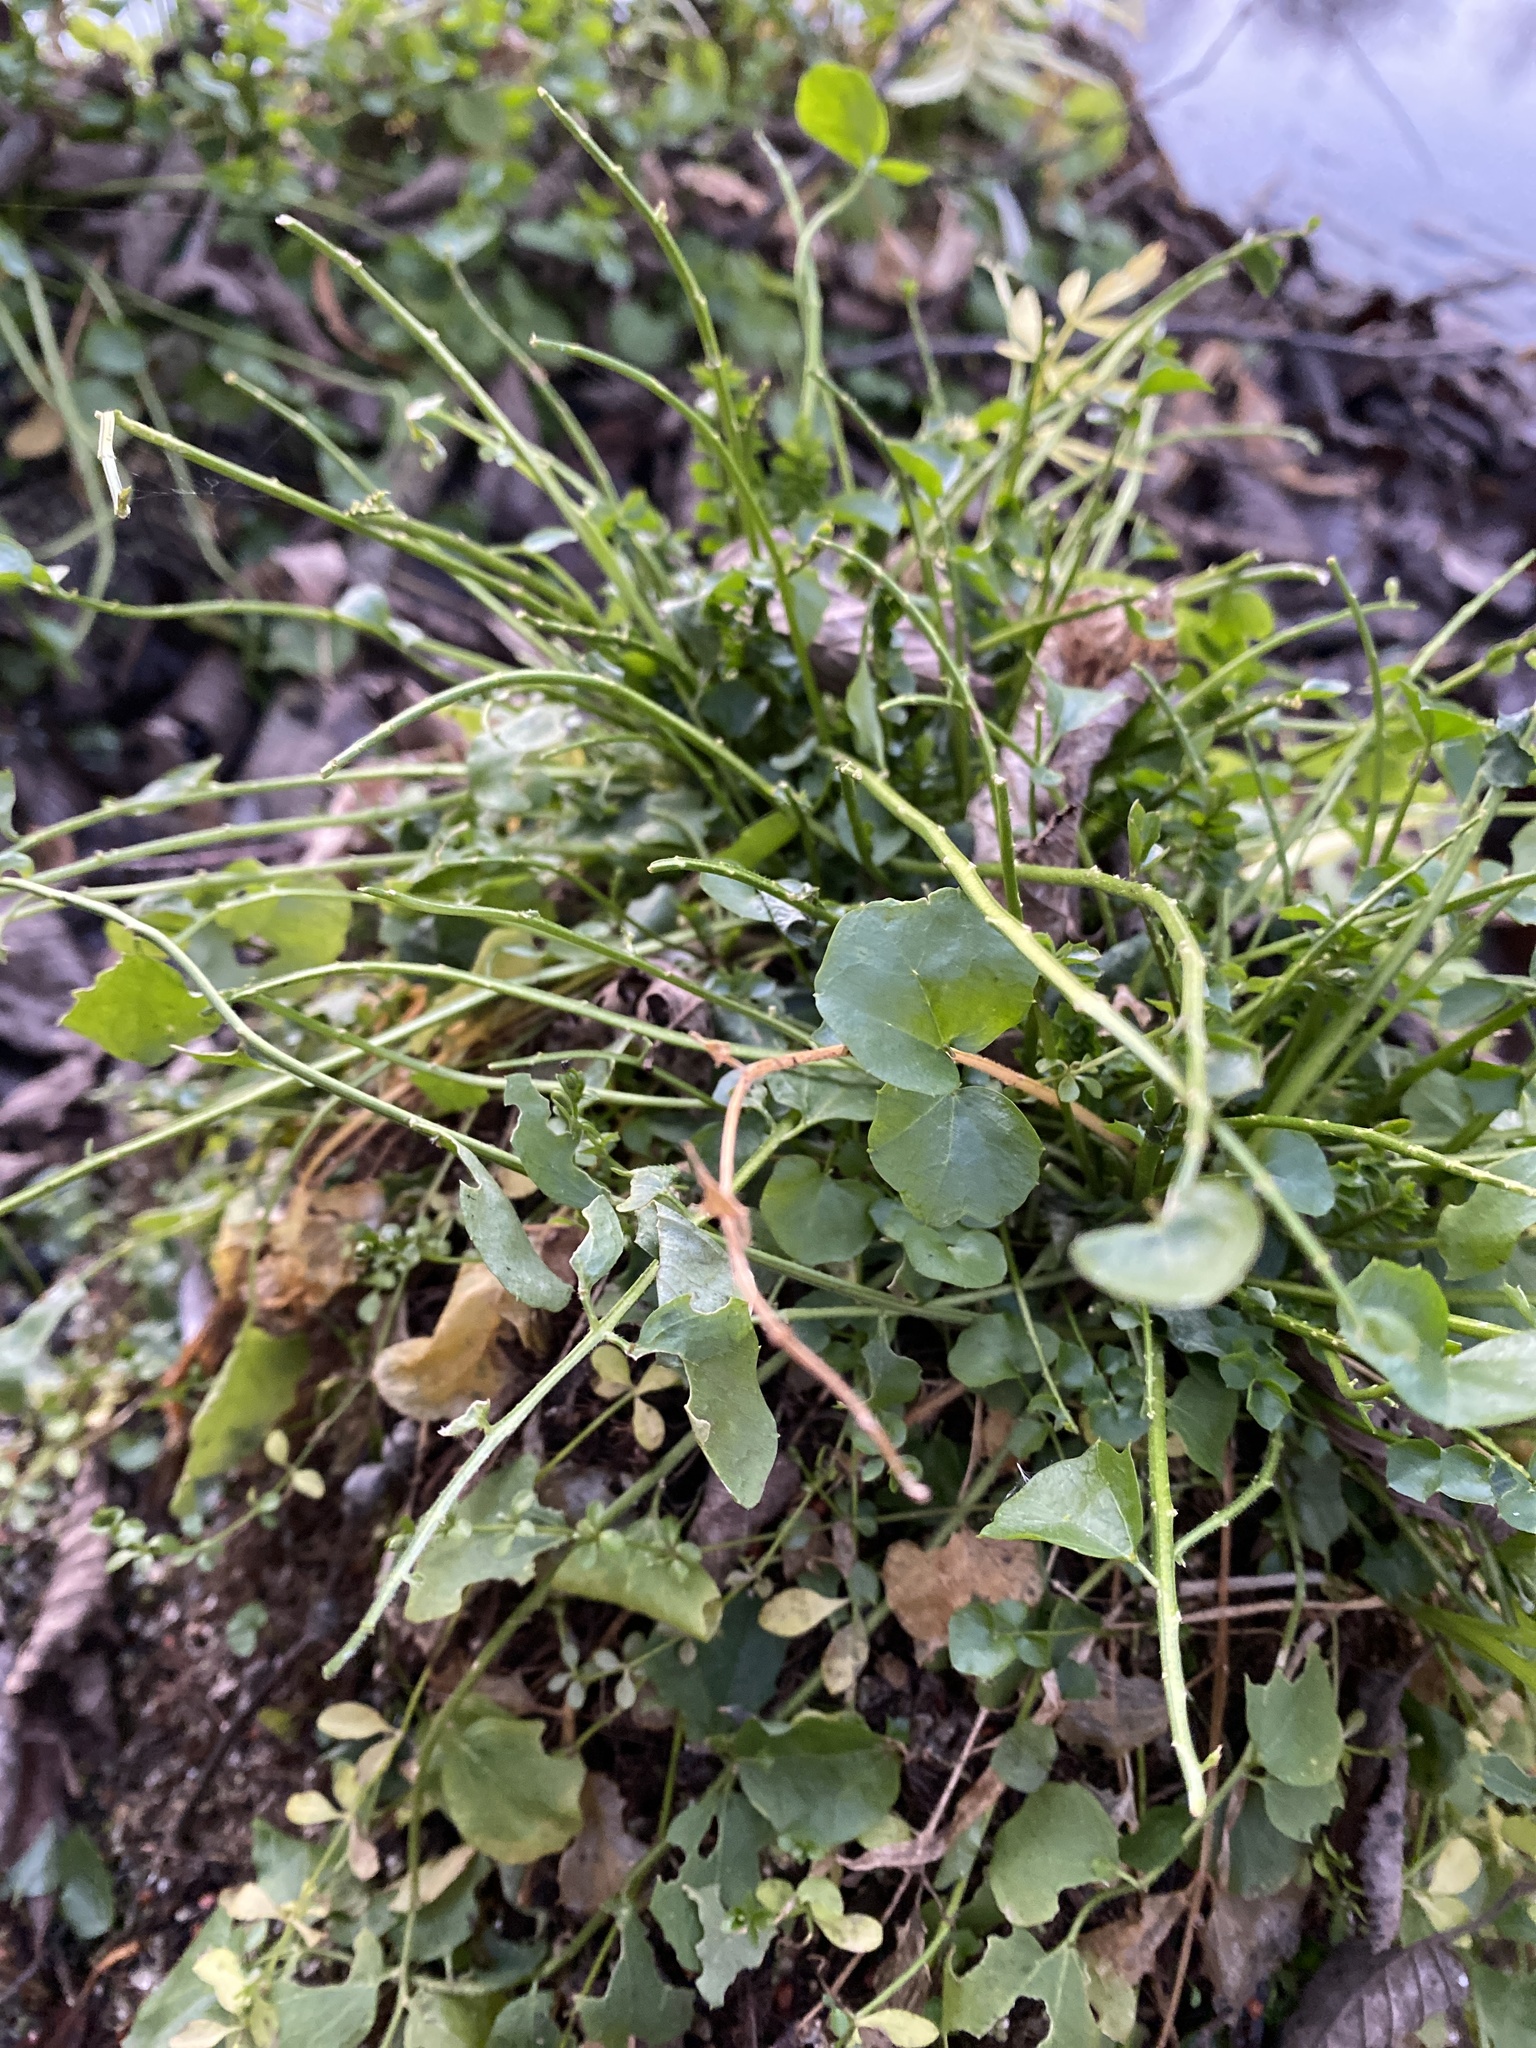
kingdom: Plantae
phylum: Tracheophyta
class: Magnoliopsida
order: Brassicales
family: Brassicaceae
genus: Cardamine
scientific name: Cardamine dentata
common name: Toothed bittercress
